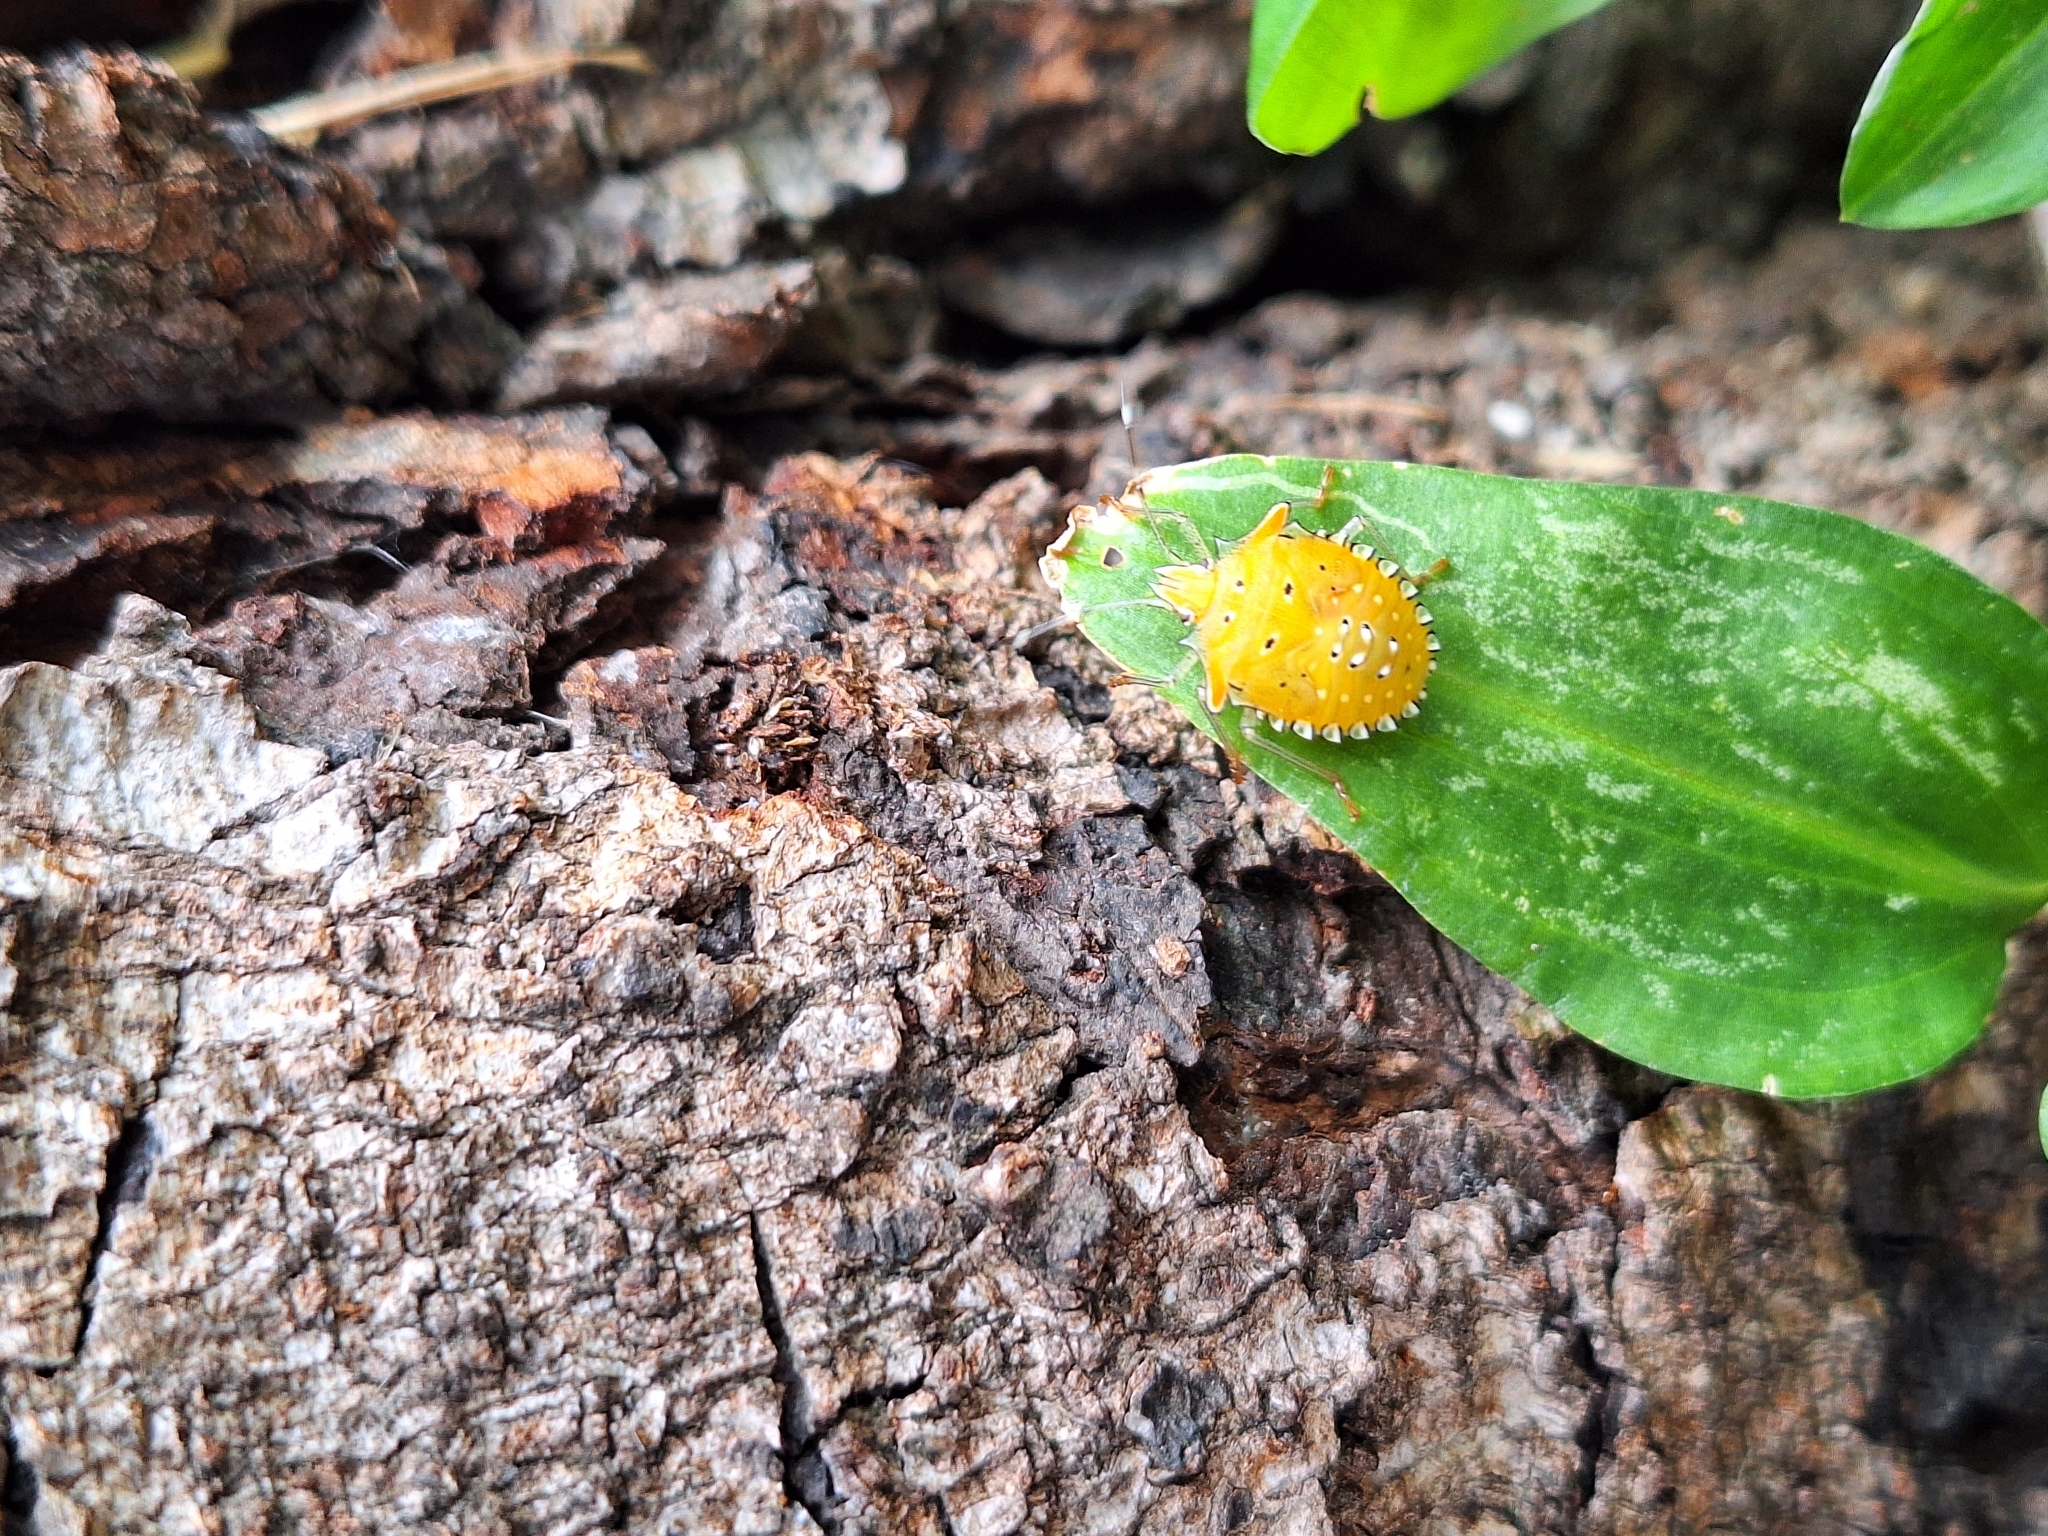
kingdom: Animalia
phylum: Arthropoda
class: Insecta
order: Hemiptera
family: Pentatomidae
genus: Arvelius
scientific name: Arvelius albopunctatus
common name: Tomato stink bug
